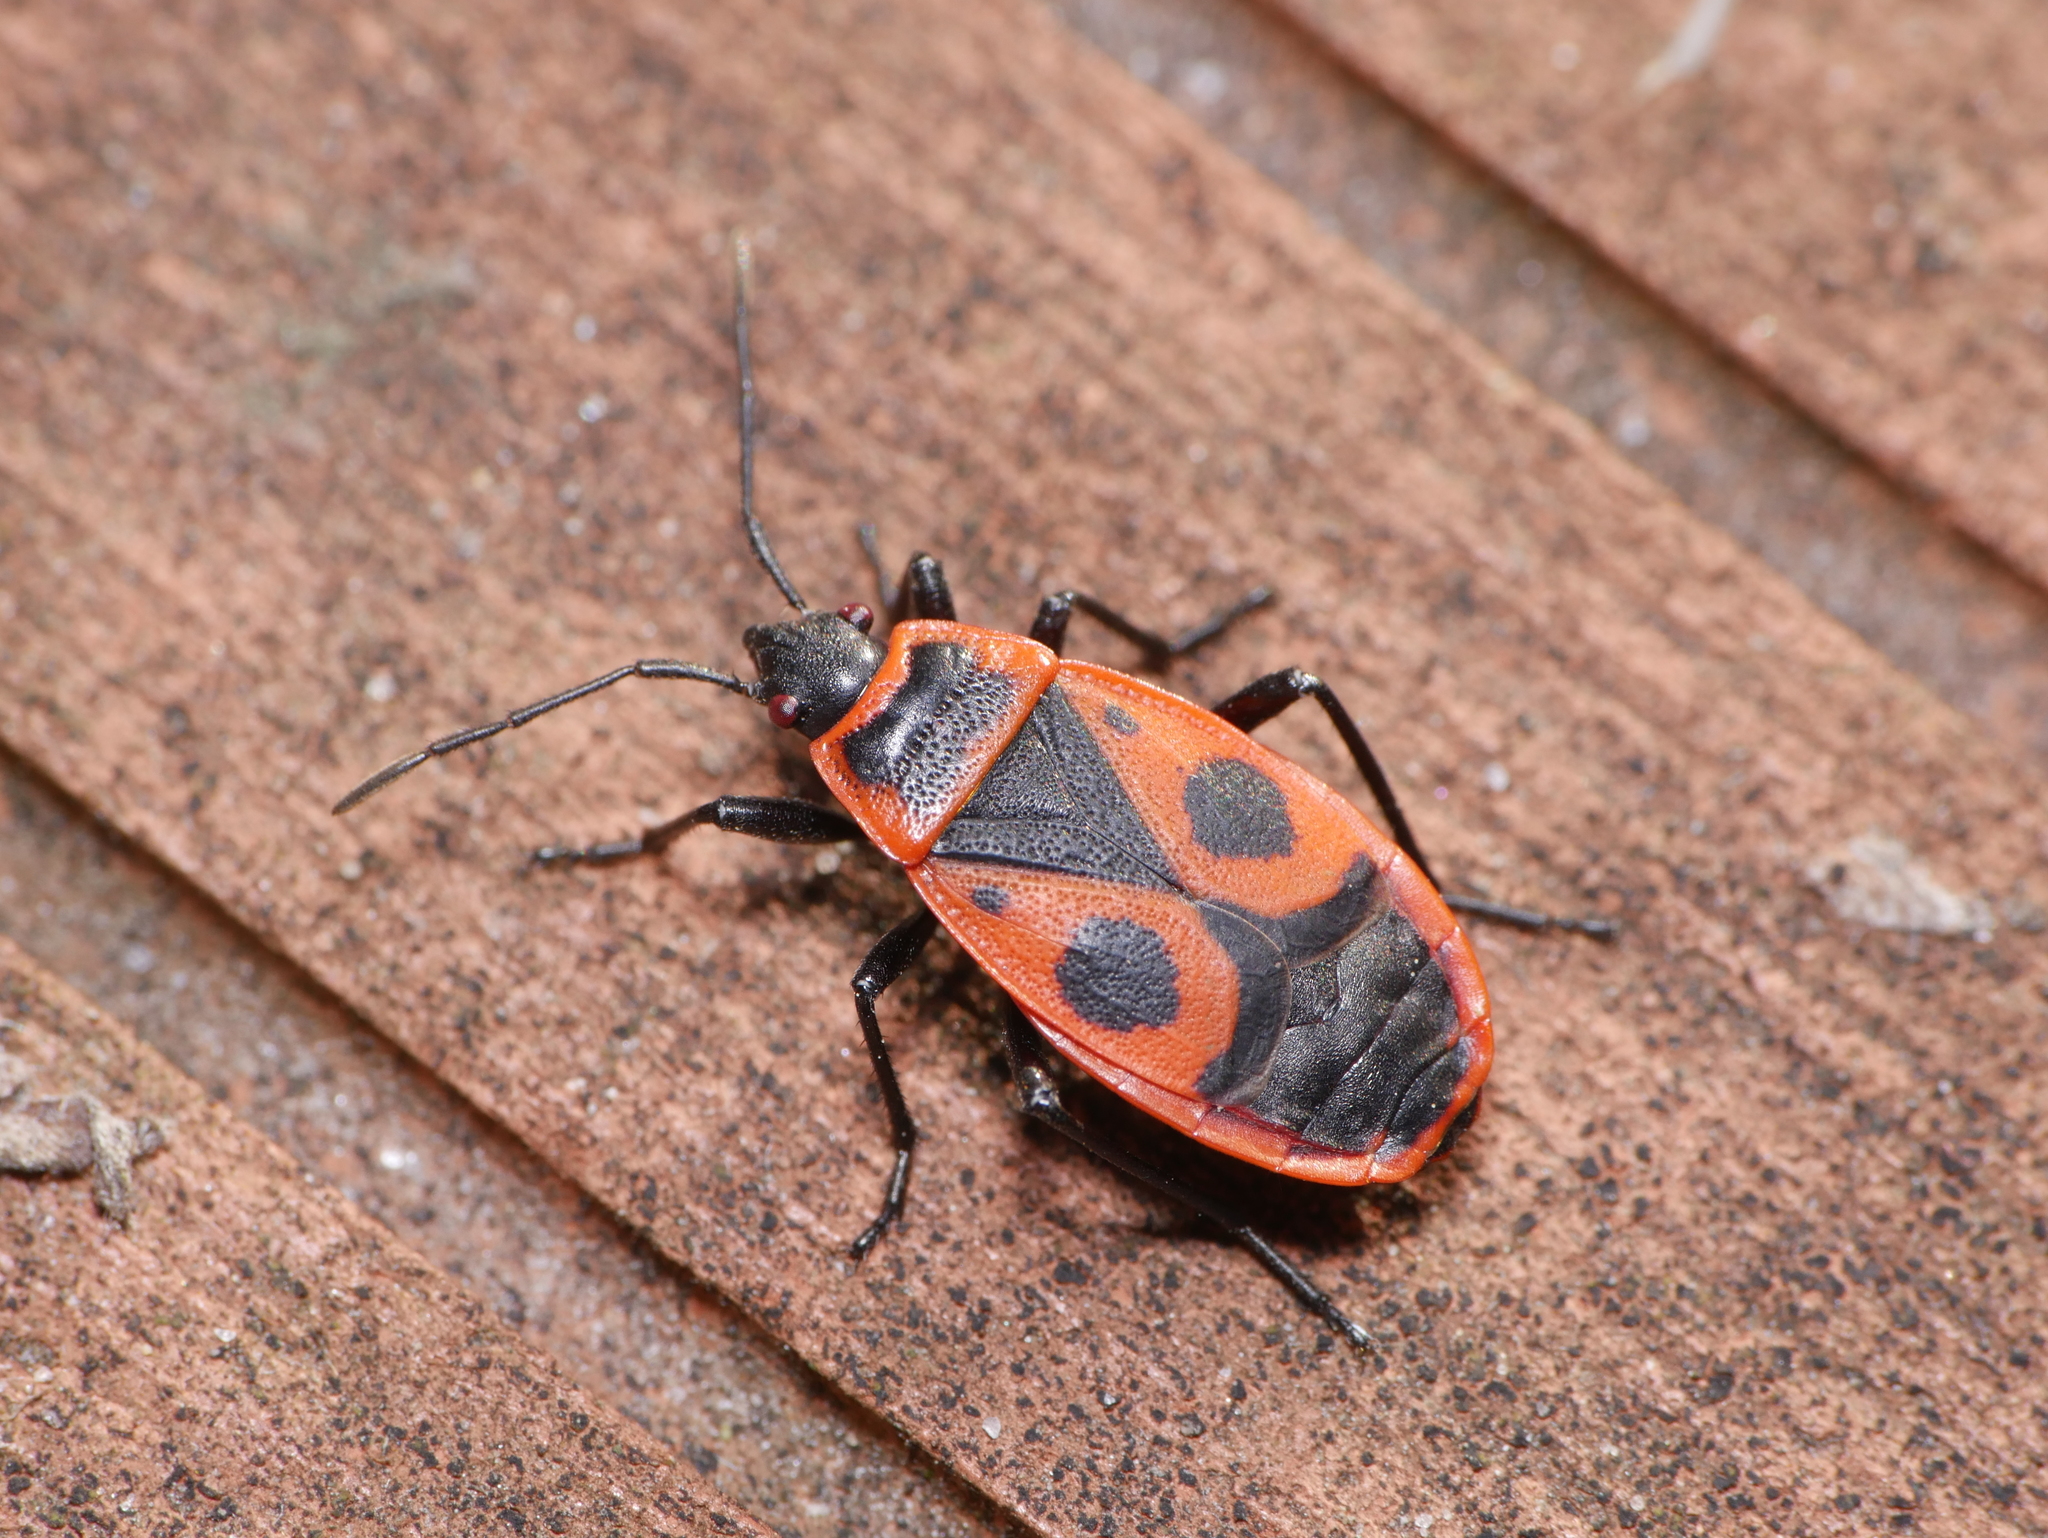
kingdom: Animalia
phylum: Arthropoda
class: Insecta
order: Hemiptera
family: Pyrrhocoridae
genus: Pyrrhocoris
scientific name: Pyrrhocoris apterus
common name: Firebug
